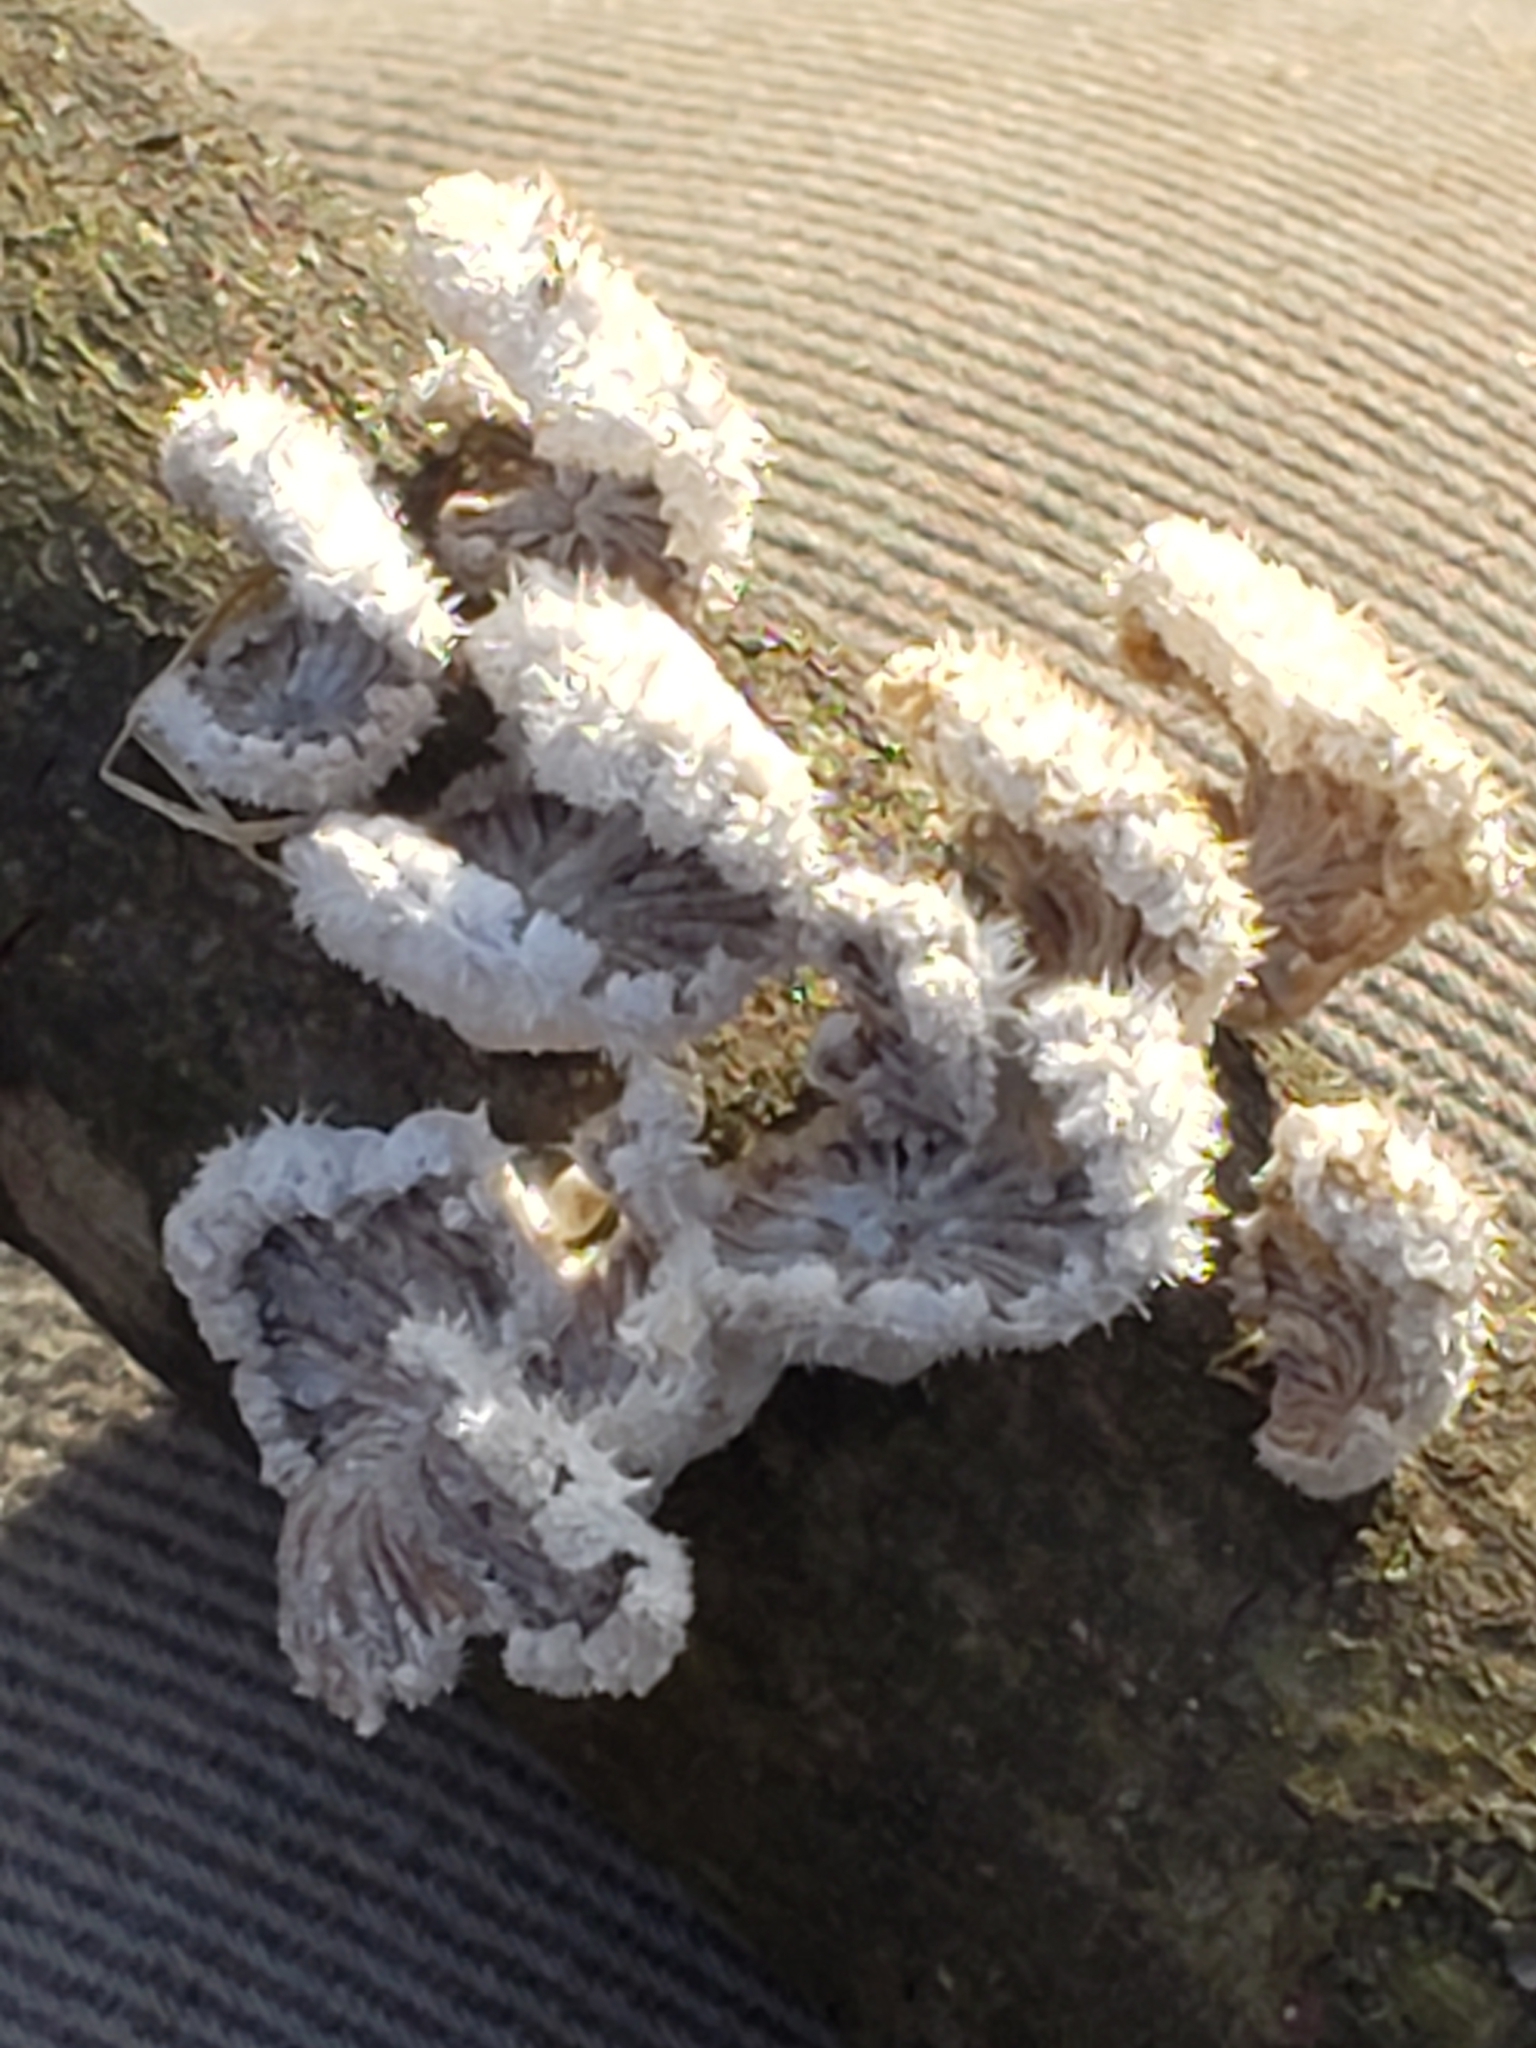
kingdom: Fungi
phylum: Basidiomycota
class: Agaricomycetes
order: Agaricales
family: Schizophyllaceae
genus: Schizophyllum
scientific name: Schizophyllum commune
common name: Common porecrust
